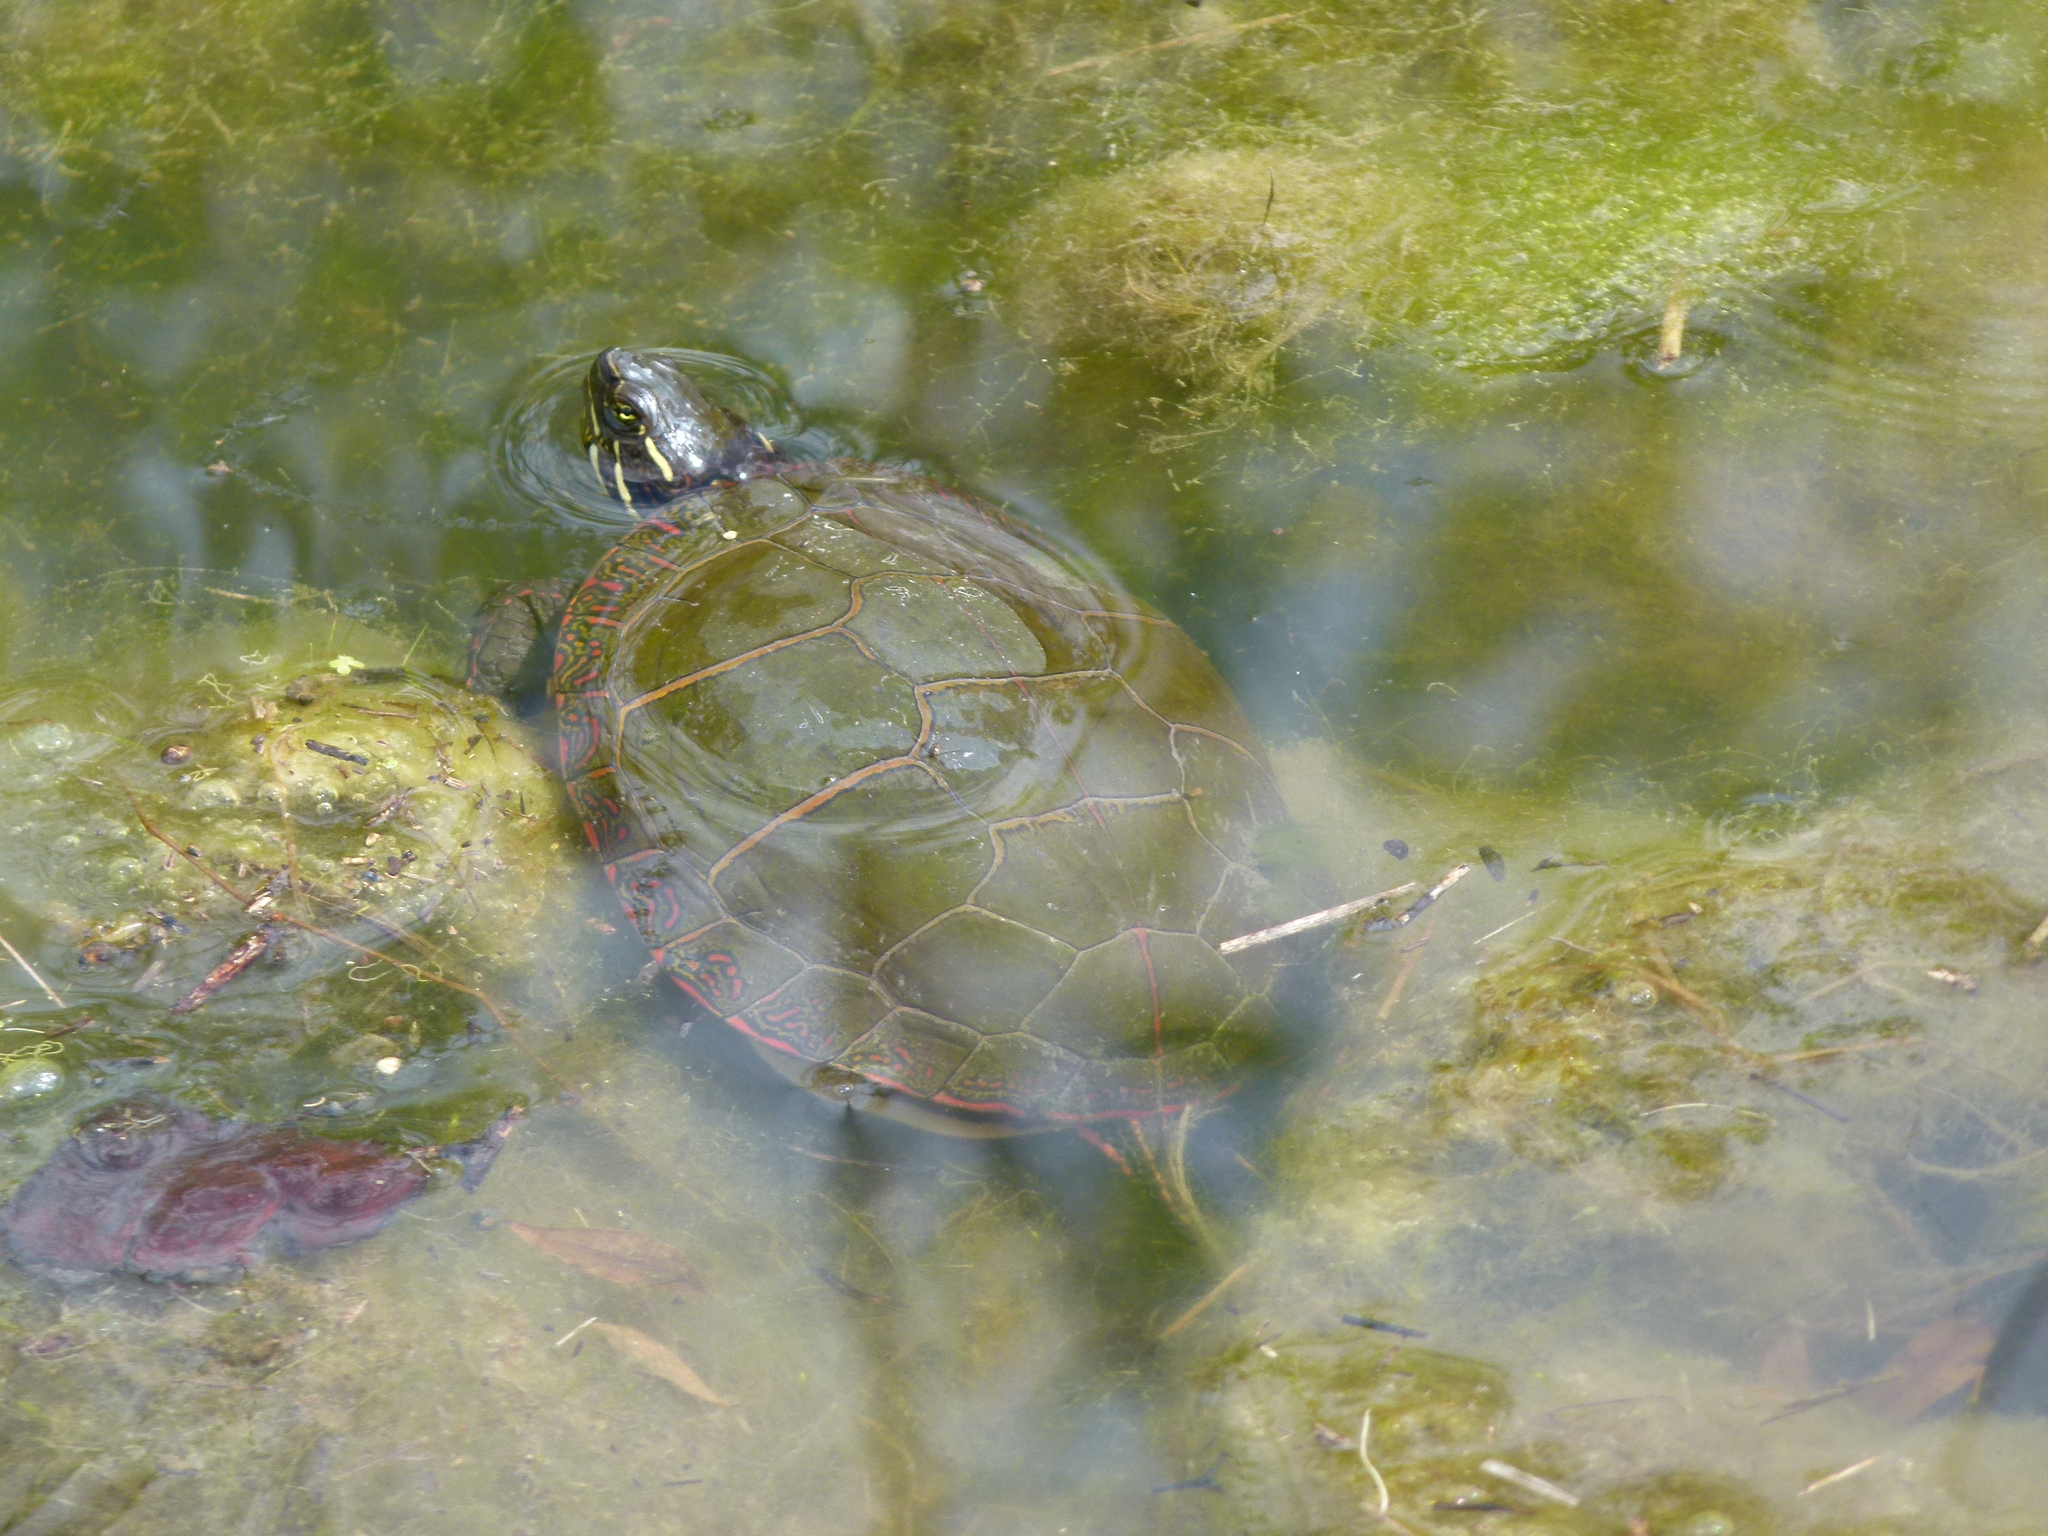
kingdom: Animalia
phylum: Chordata
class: Testudines
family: Emydidae
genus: Chrysemys
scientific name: Chrysemys picta
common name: Painted turtle
